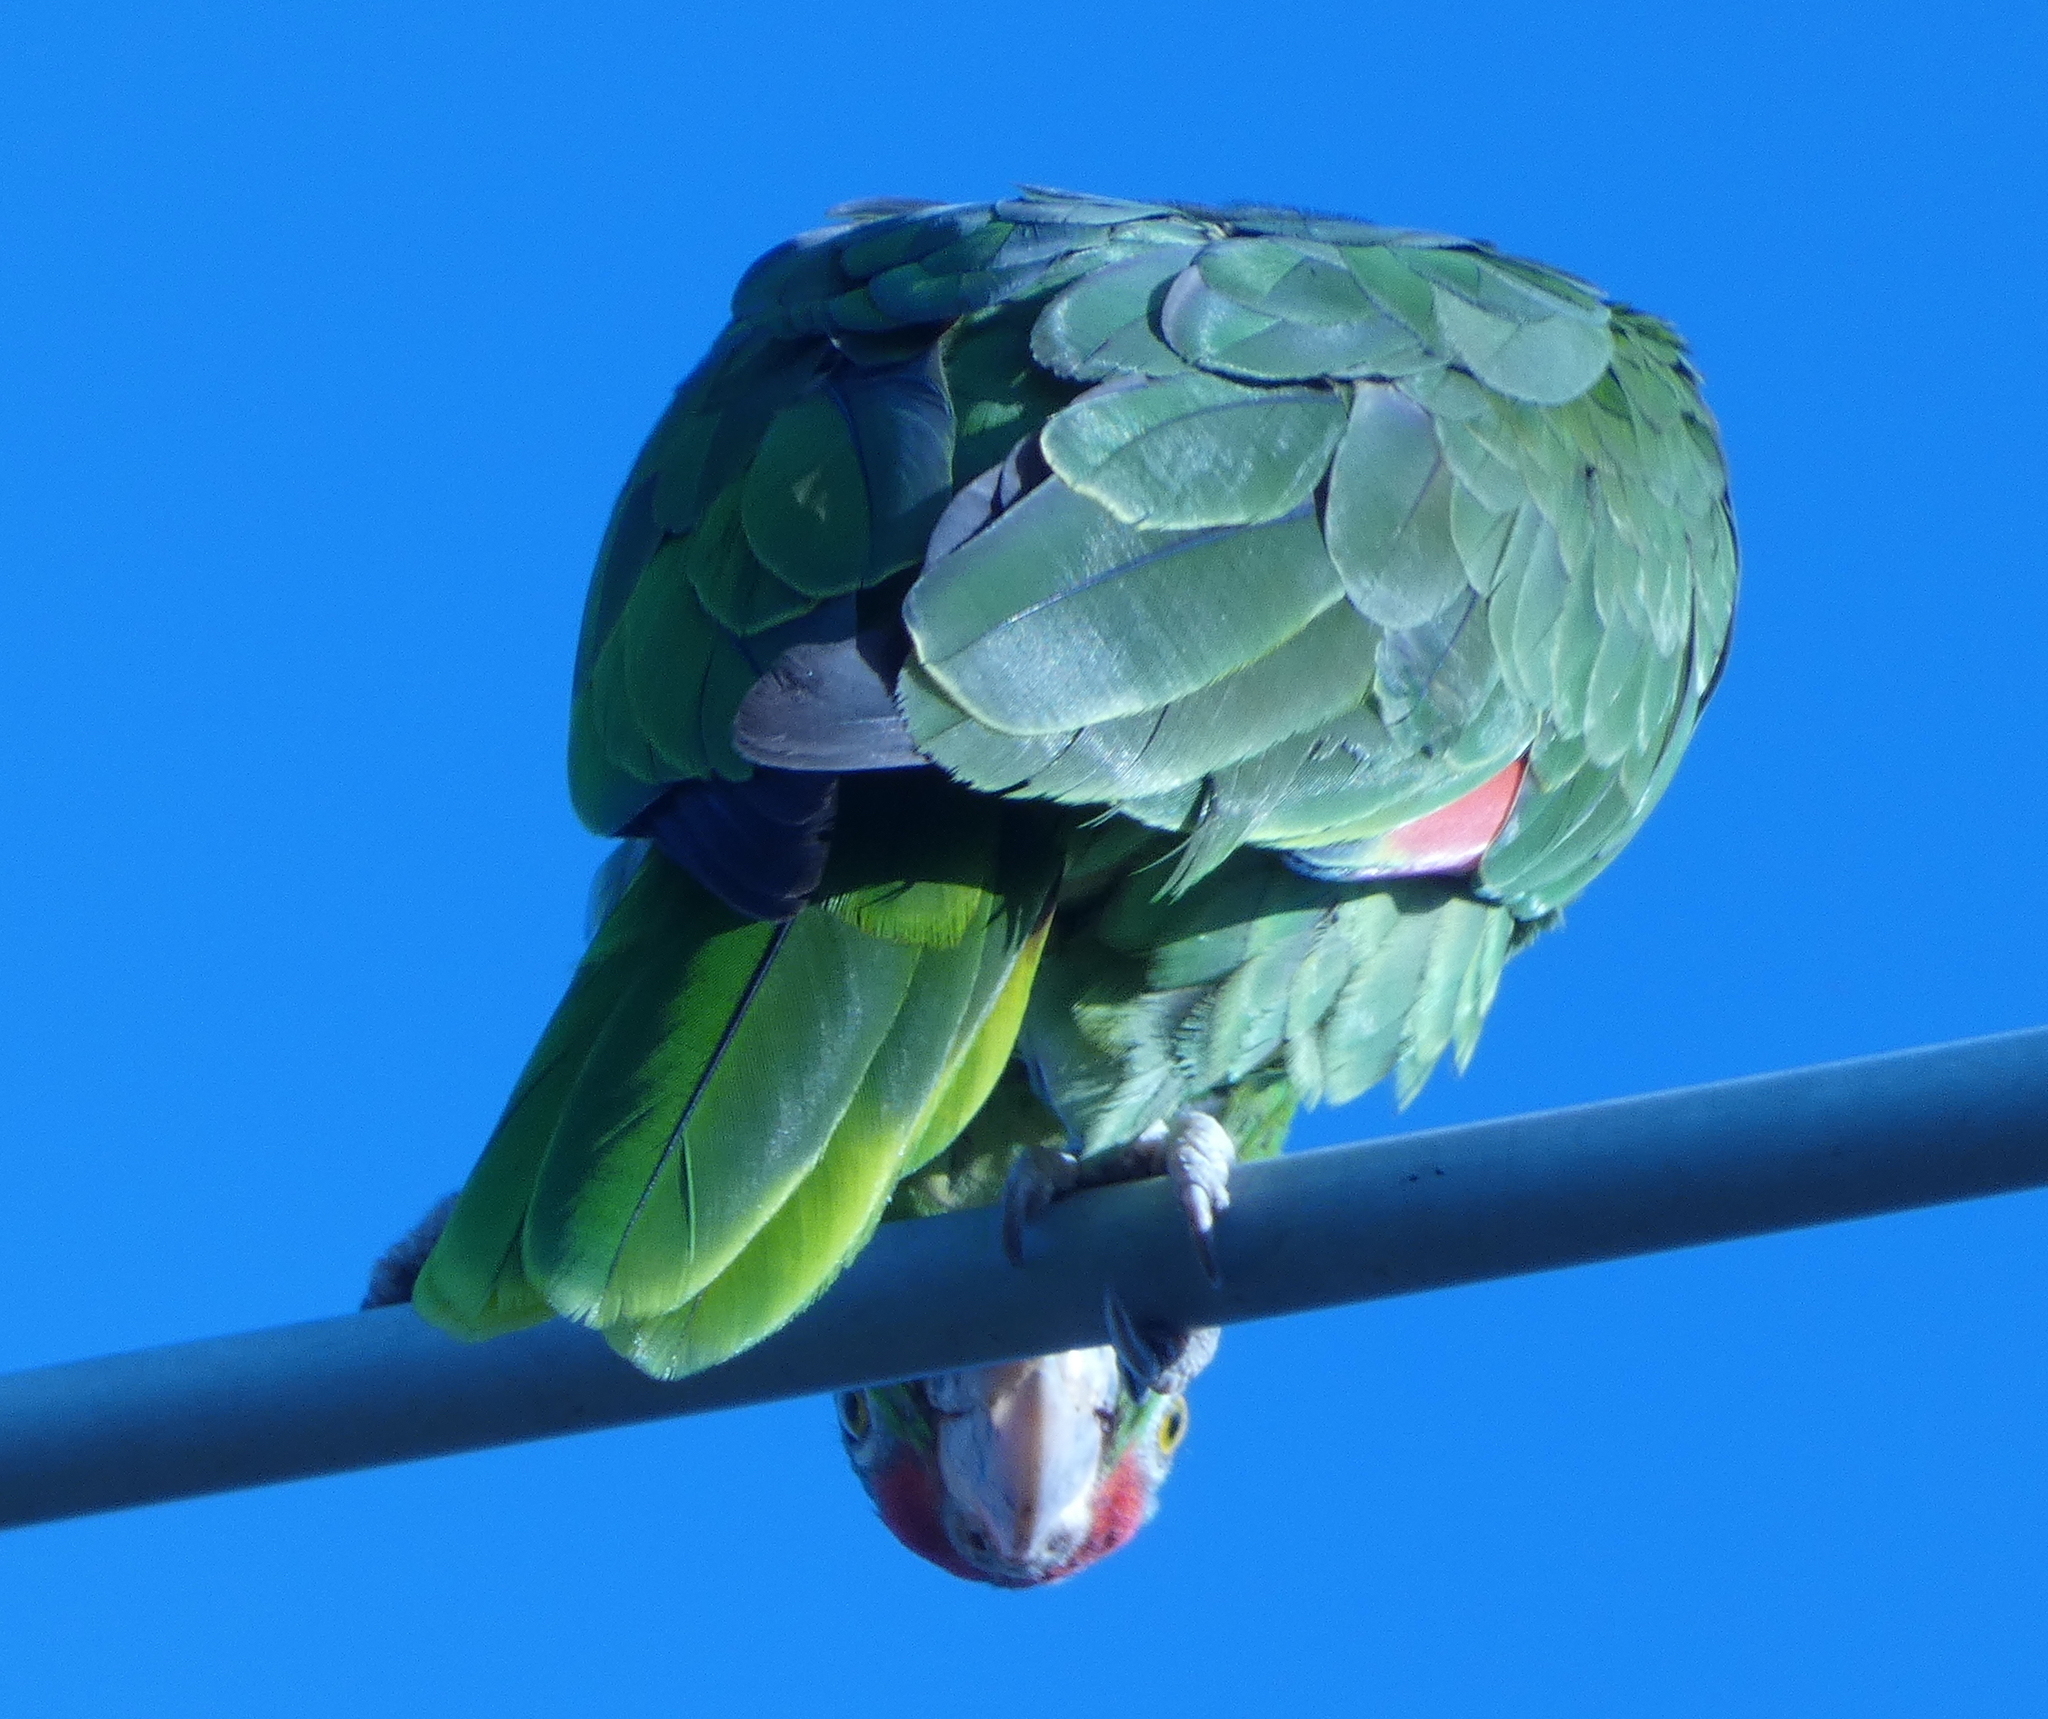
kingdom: Animalia
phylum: Chordata
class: Aves
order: Psittaciformes
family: Psittacidae
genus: Amazona
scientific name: Amazona viridigenalis
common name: Red-crowned amazon
